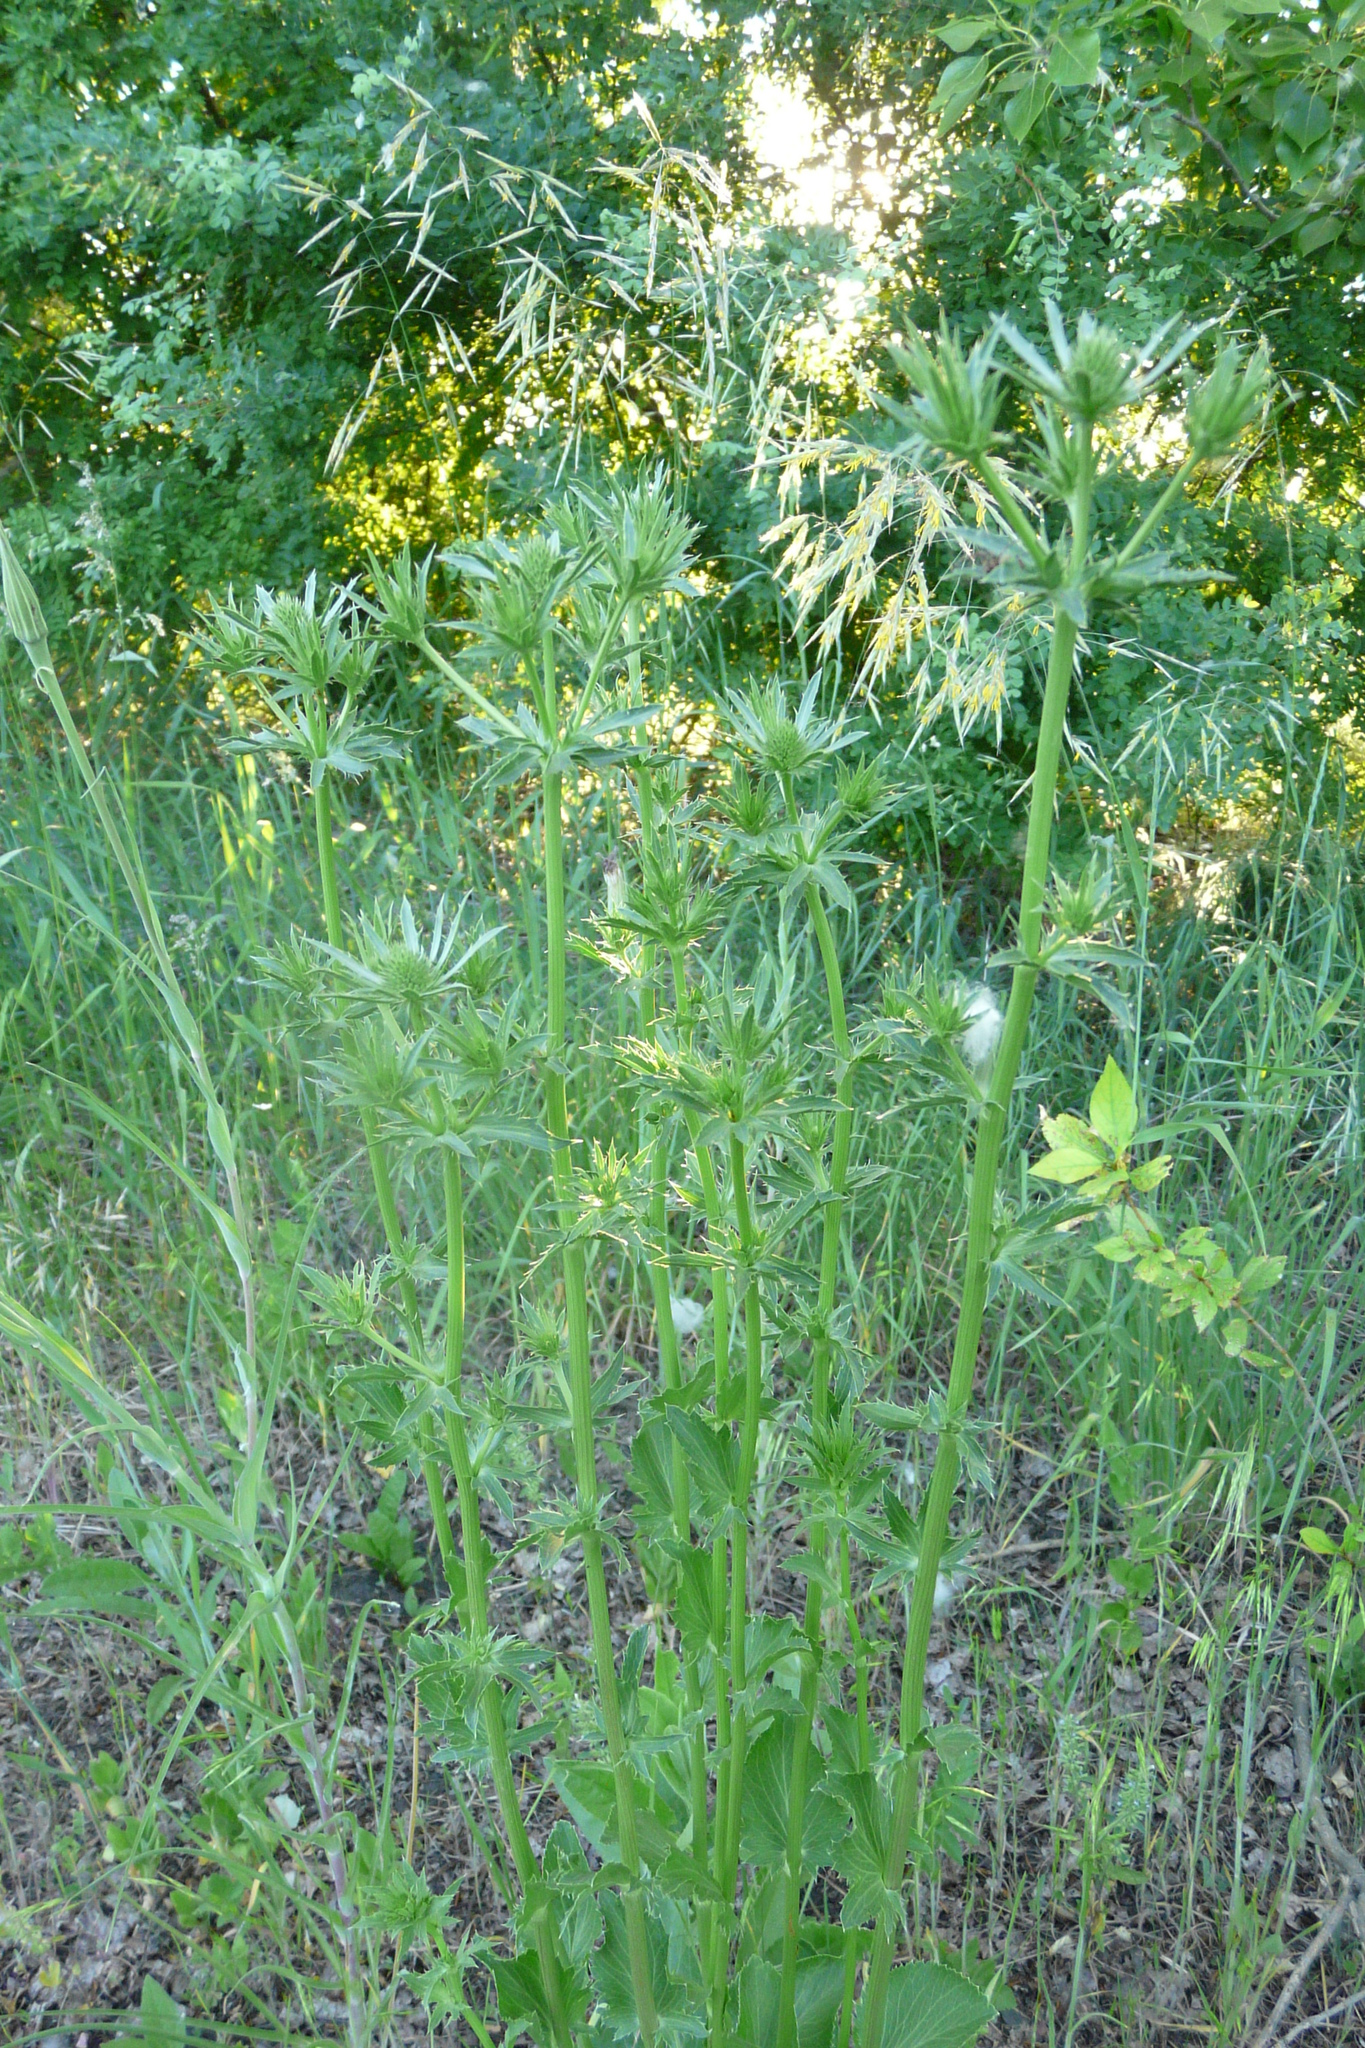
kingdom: Plantae
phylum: Tracheophyta
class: Magnoliopsida
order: Apiales
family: Apiaceae
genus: Eryngium
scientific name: Eryngium planum
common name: Blue eryngo
